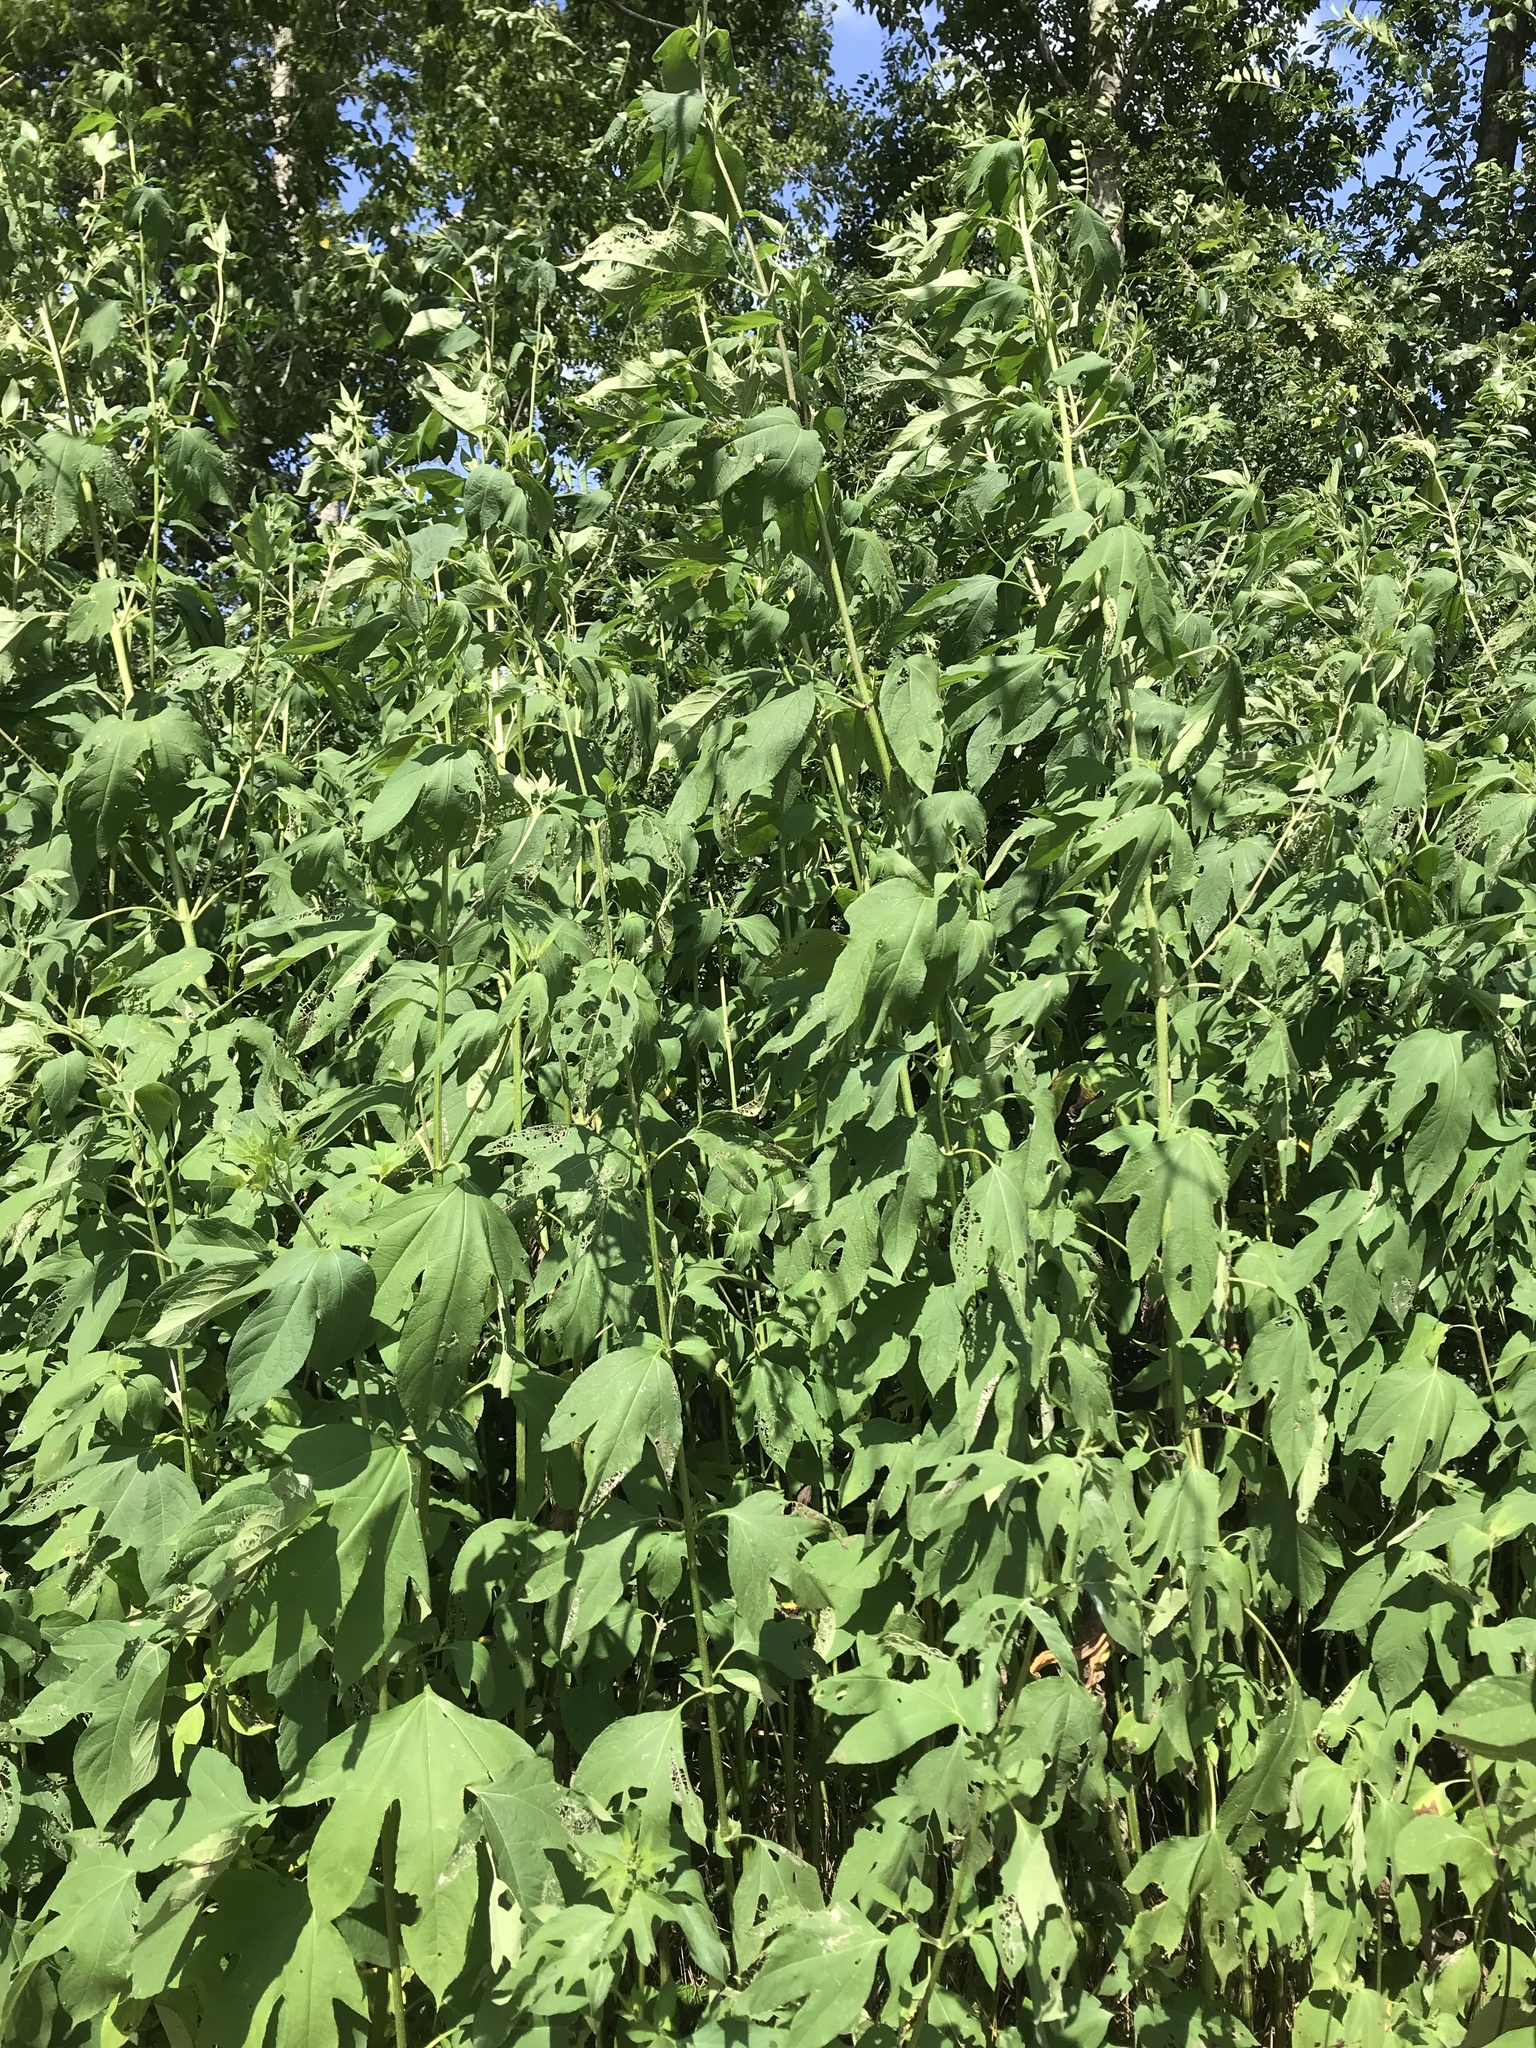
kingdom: Plantae
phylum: Tracheophyta
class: Magnoliopsida
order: Asterales
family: Asteraceae
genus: Ambrosia
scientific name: Ambrosia trifida
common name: Giant ragweed
